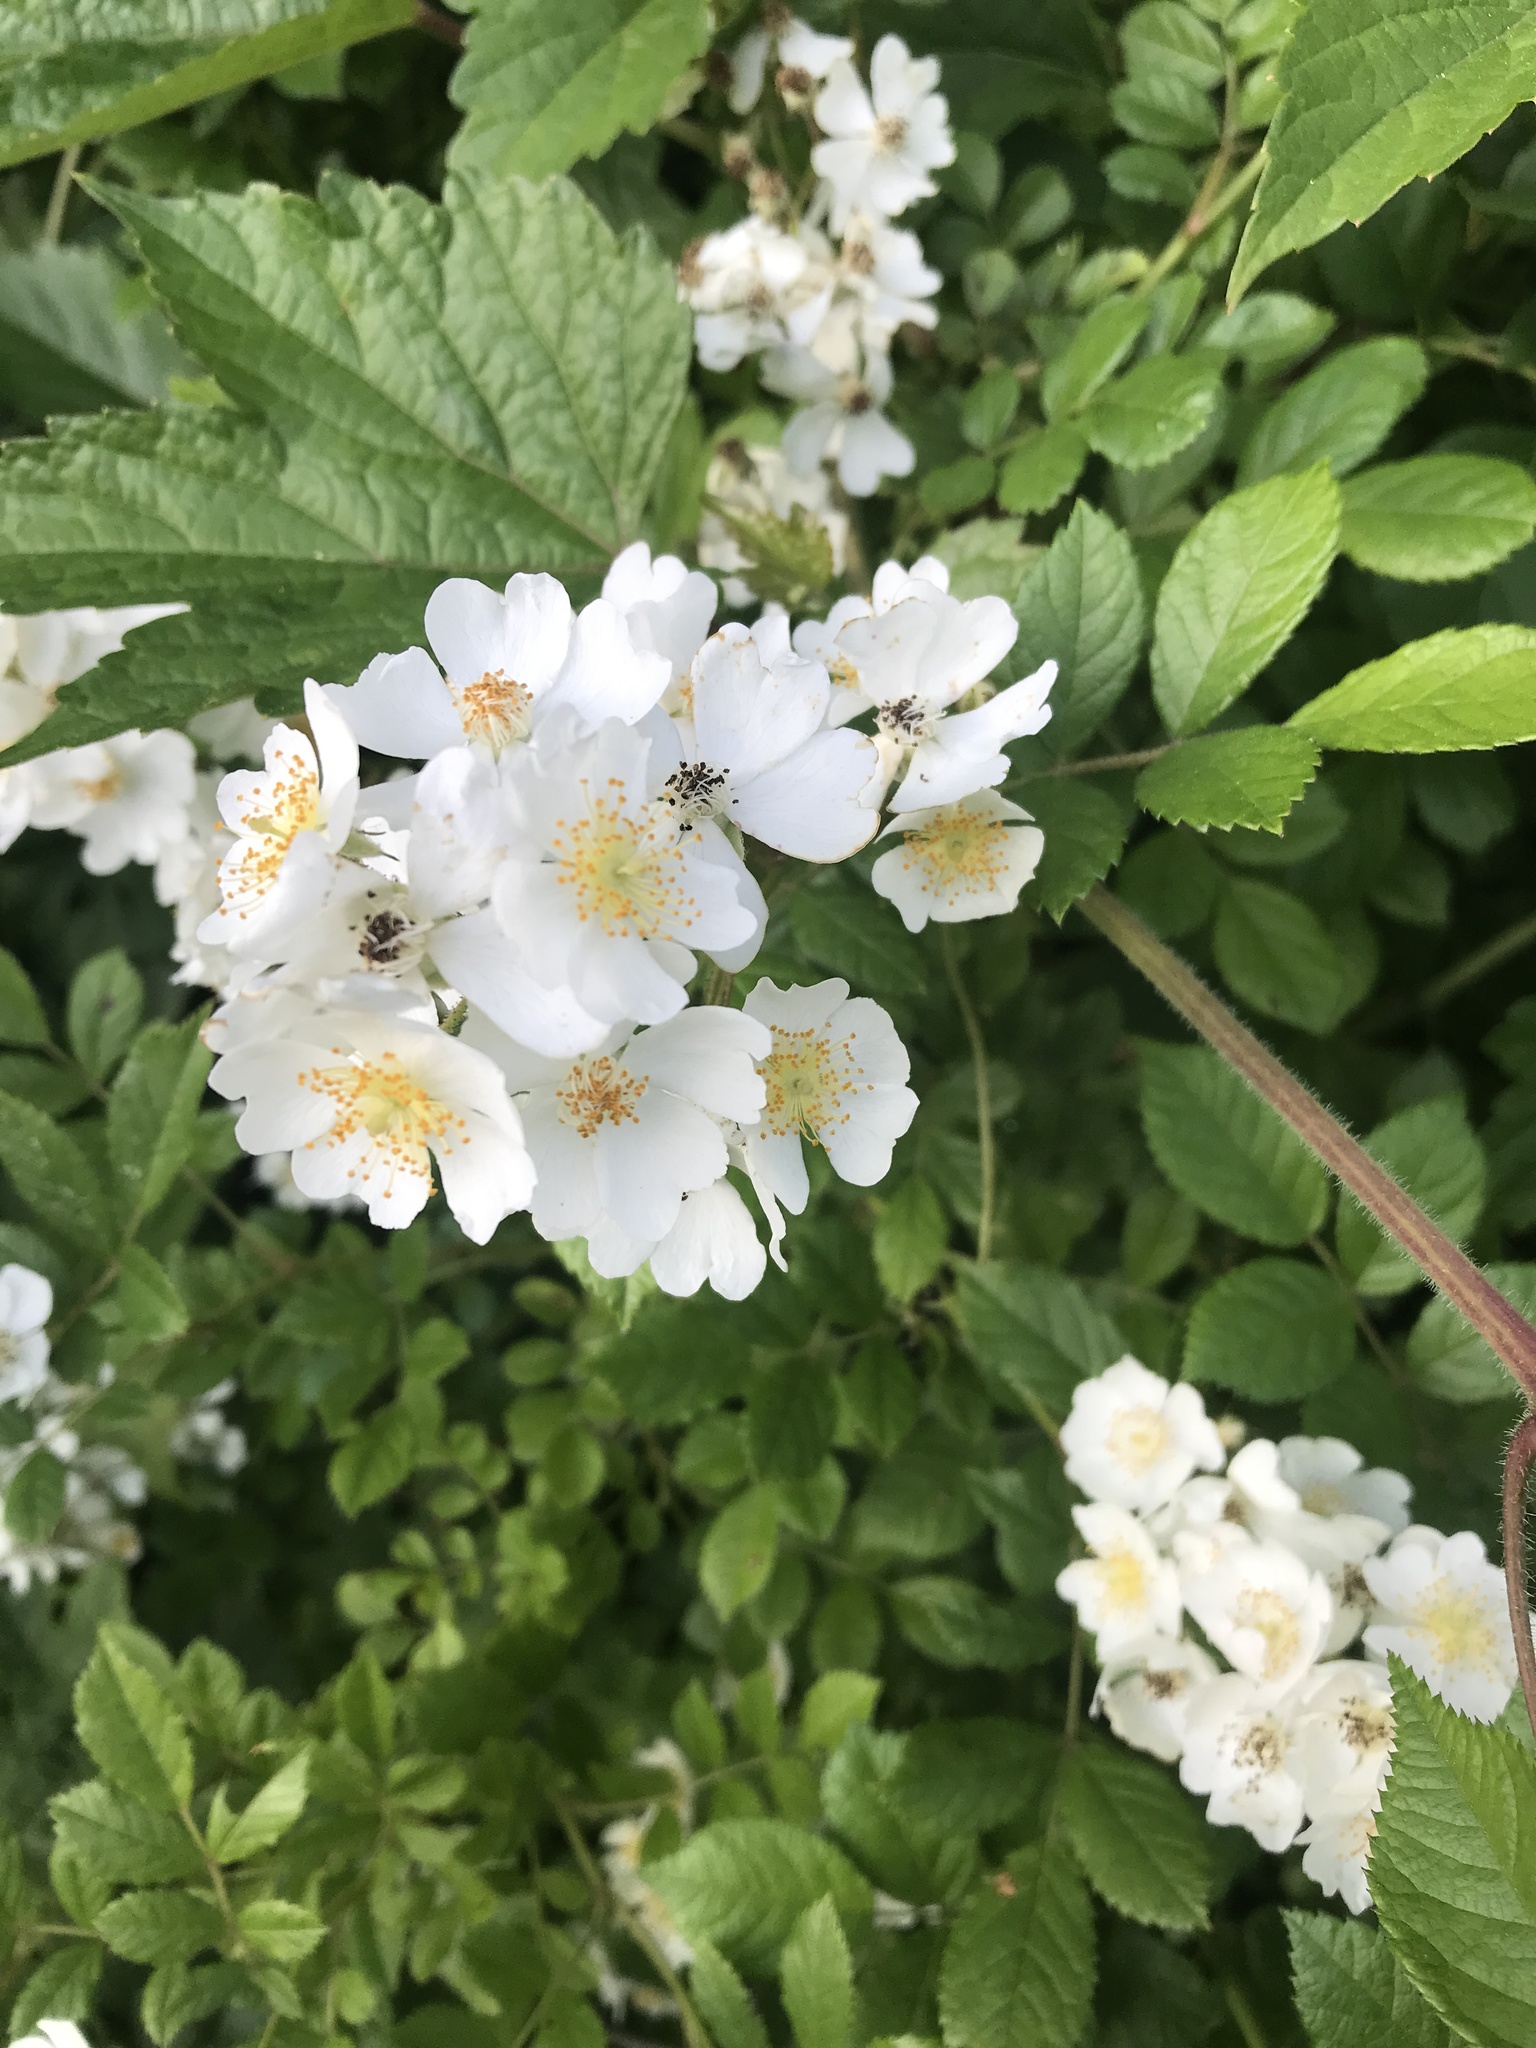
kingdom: Plantae
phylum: Tracheophyta
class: Magnoliopsida
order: Rosales
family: Rosaceae
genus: Rosa
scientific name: Rosa multiflora
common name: Multiflora rose
